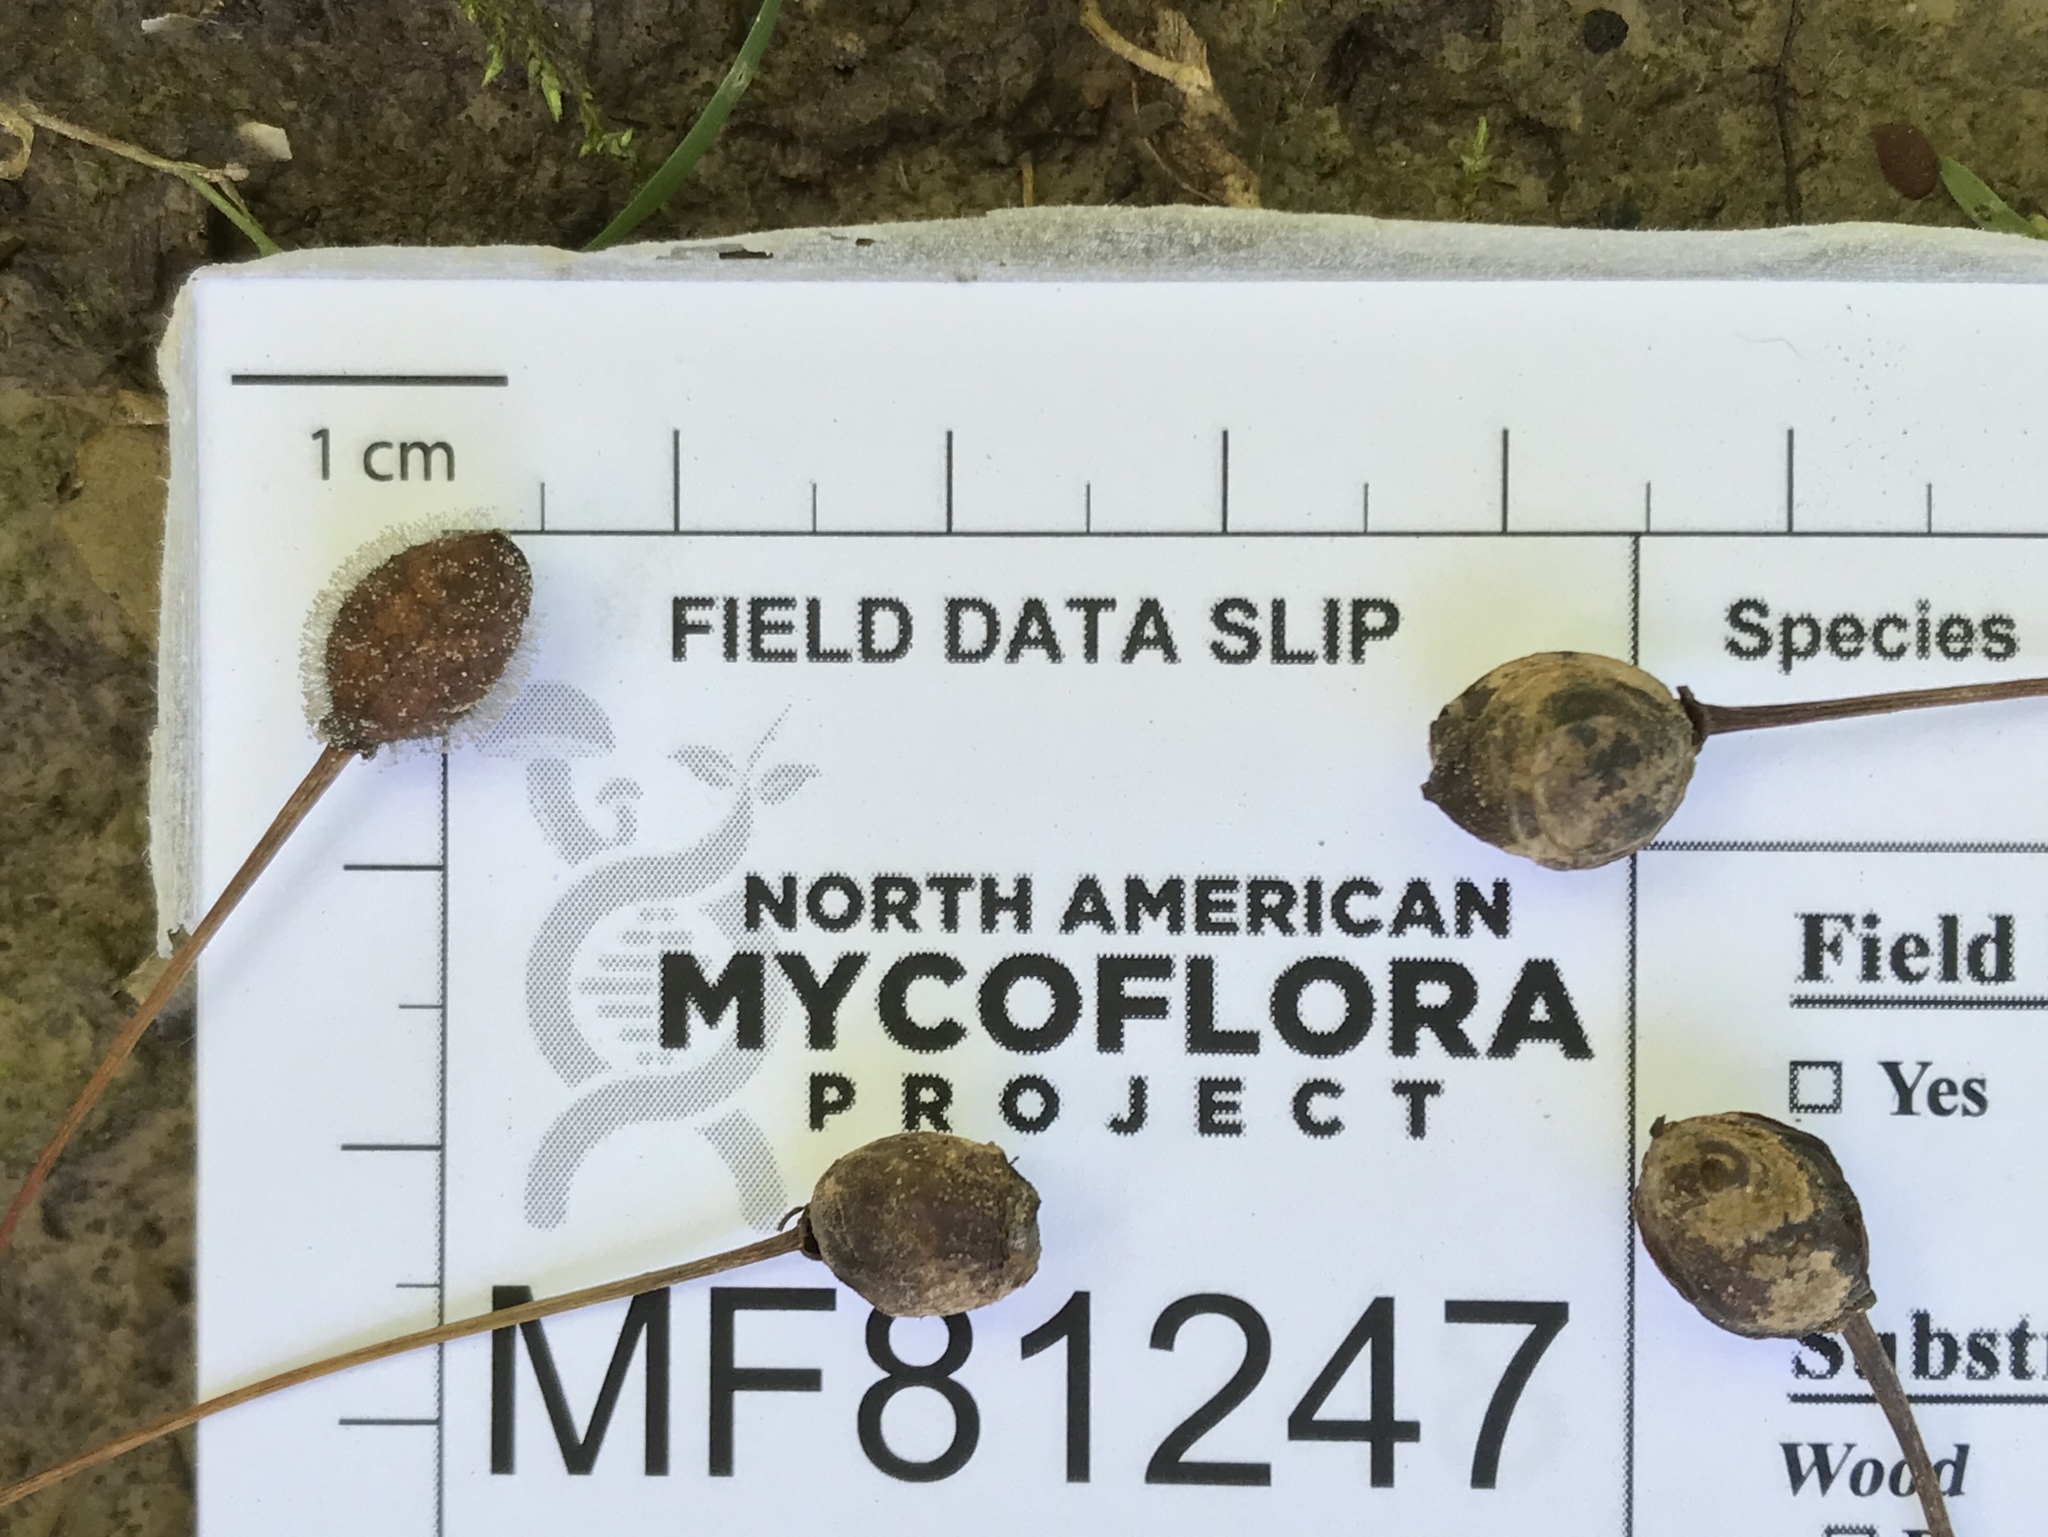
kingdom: Fungi
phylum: Ascomycota
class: Leotiomycetes
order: Helotiales
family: Sclerotiniaceae
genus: Monilinia
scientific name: Monilinia laxa
